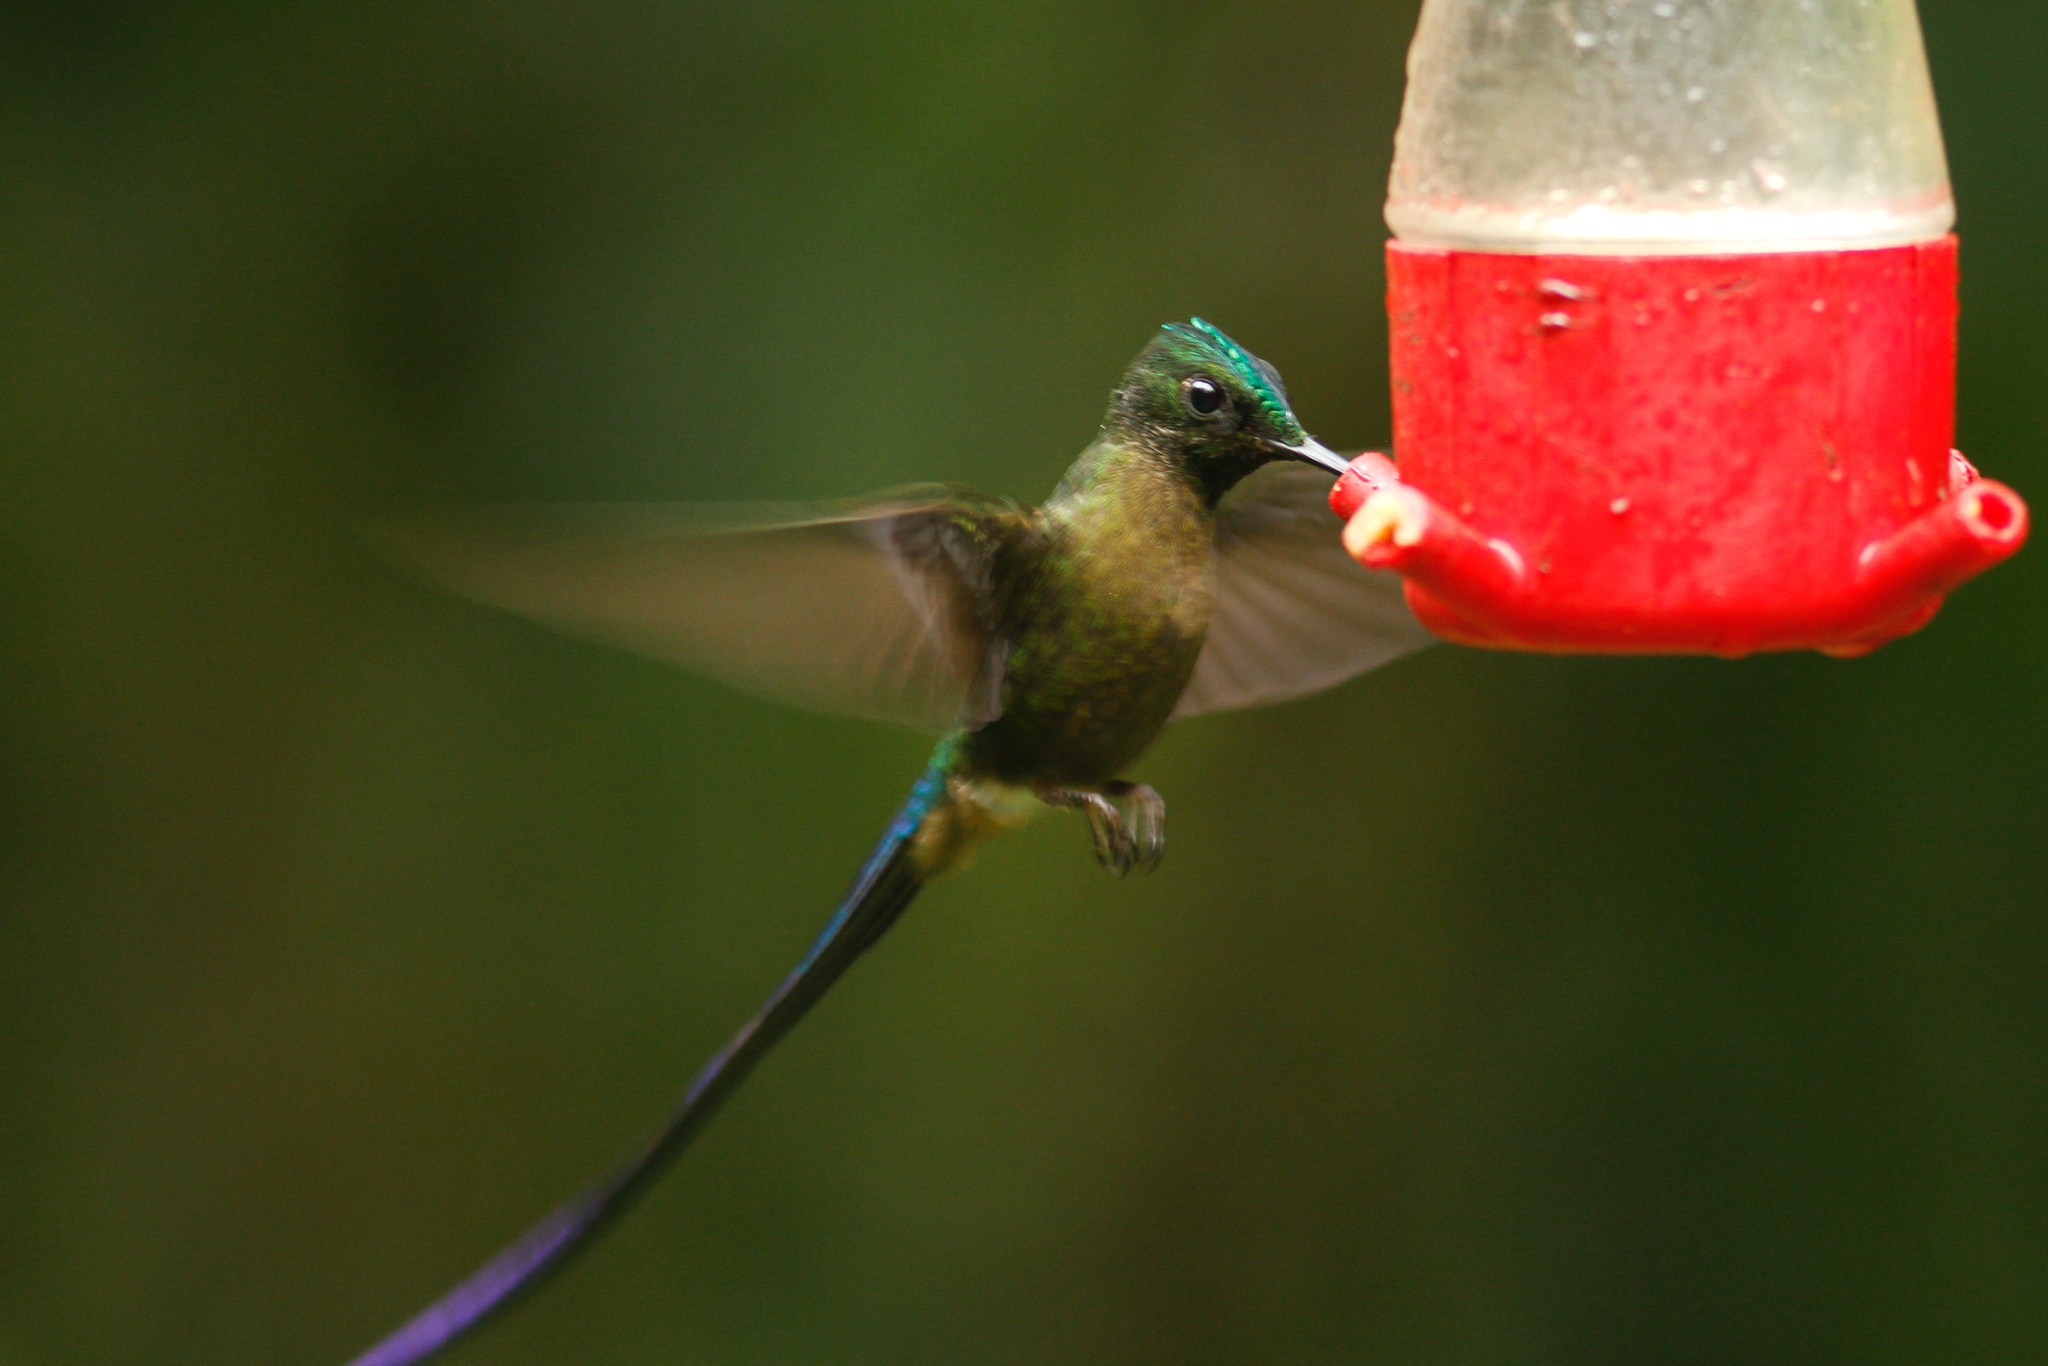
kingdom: Animalia
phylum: Chordata
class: Aves
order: Apodiformes
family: Trochilidae
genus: Aglaiocercus
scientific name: Aglaiocercus coelestis
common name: Violet-tailed sylph
